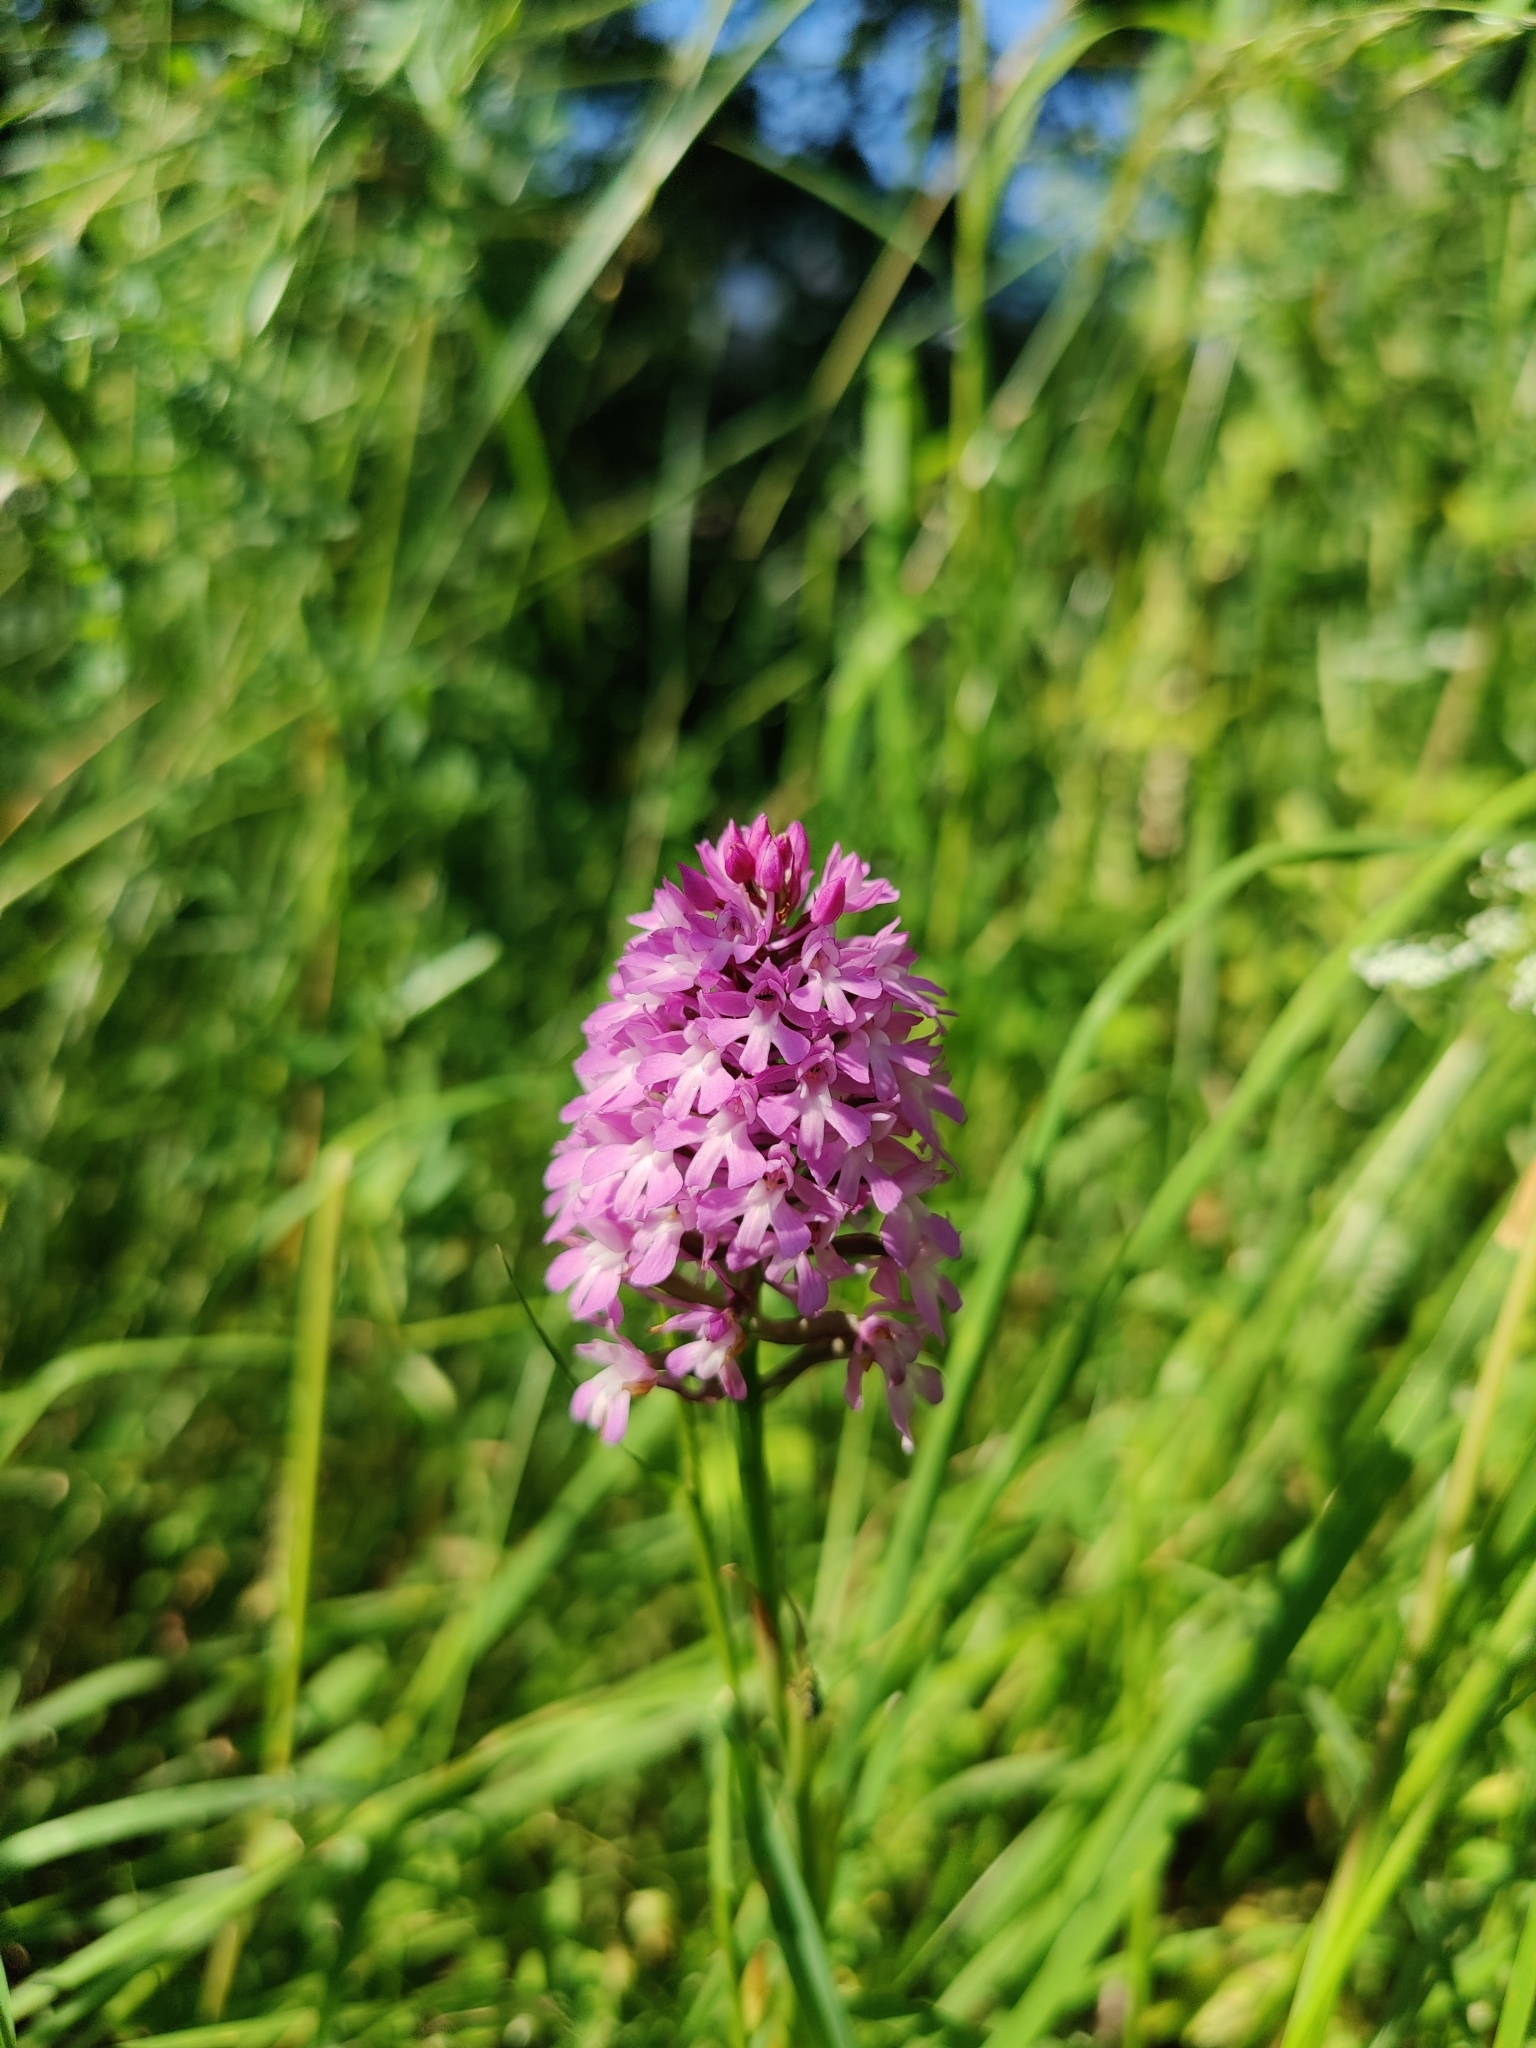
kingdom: Plantae
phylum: Tracheophyta
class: Liliopsida
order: Asparagales
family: Orchidaceae
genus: Anacamptis
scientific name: Anacamptis pyramidalis
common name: Pyramidal orchid
